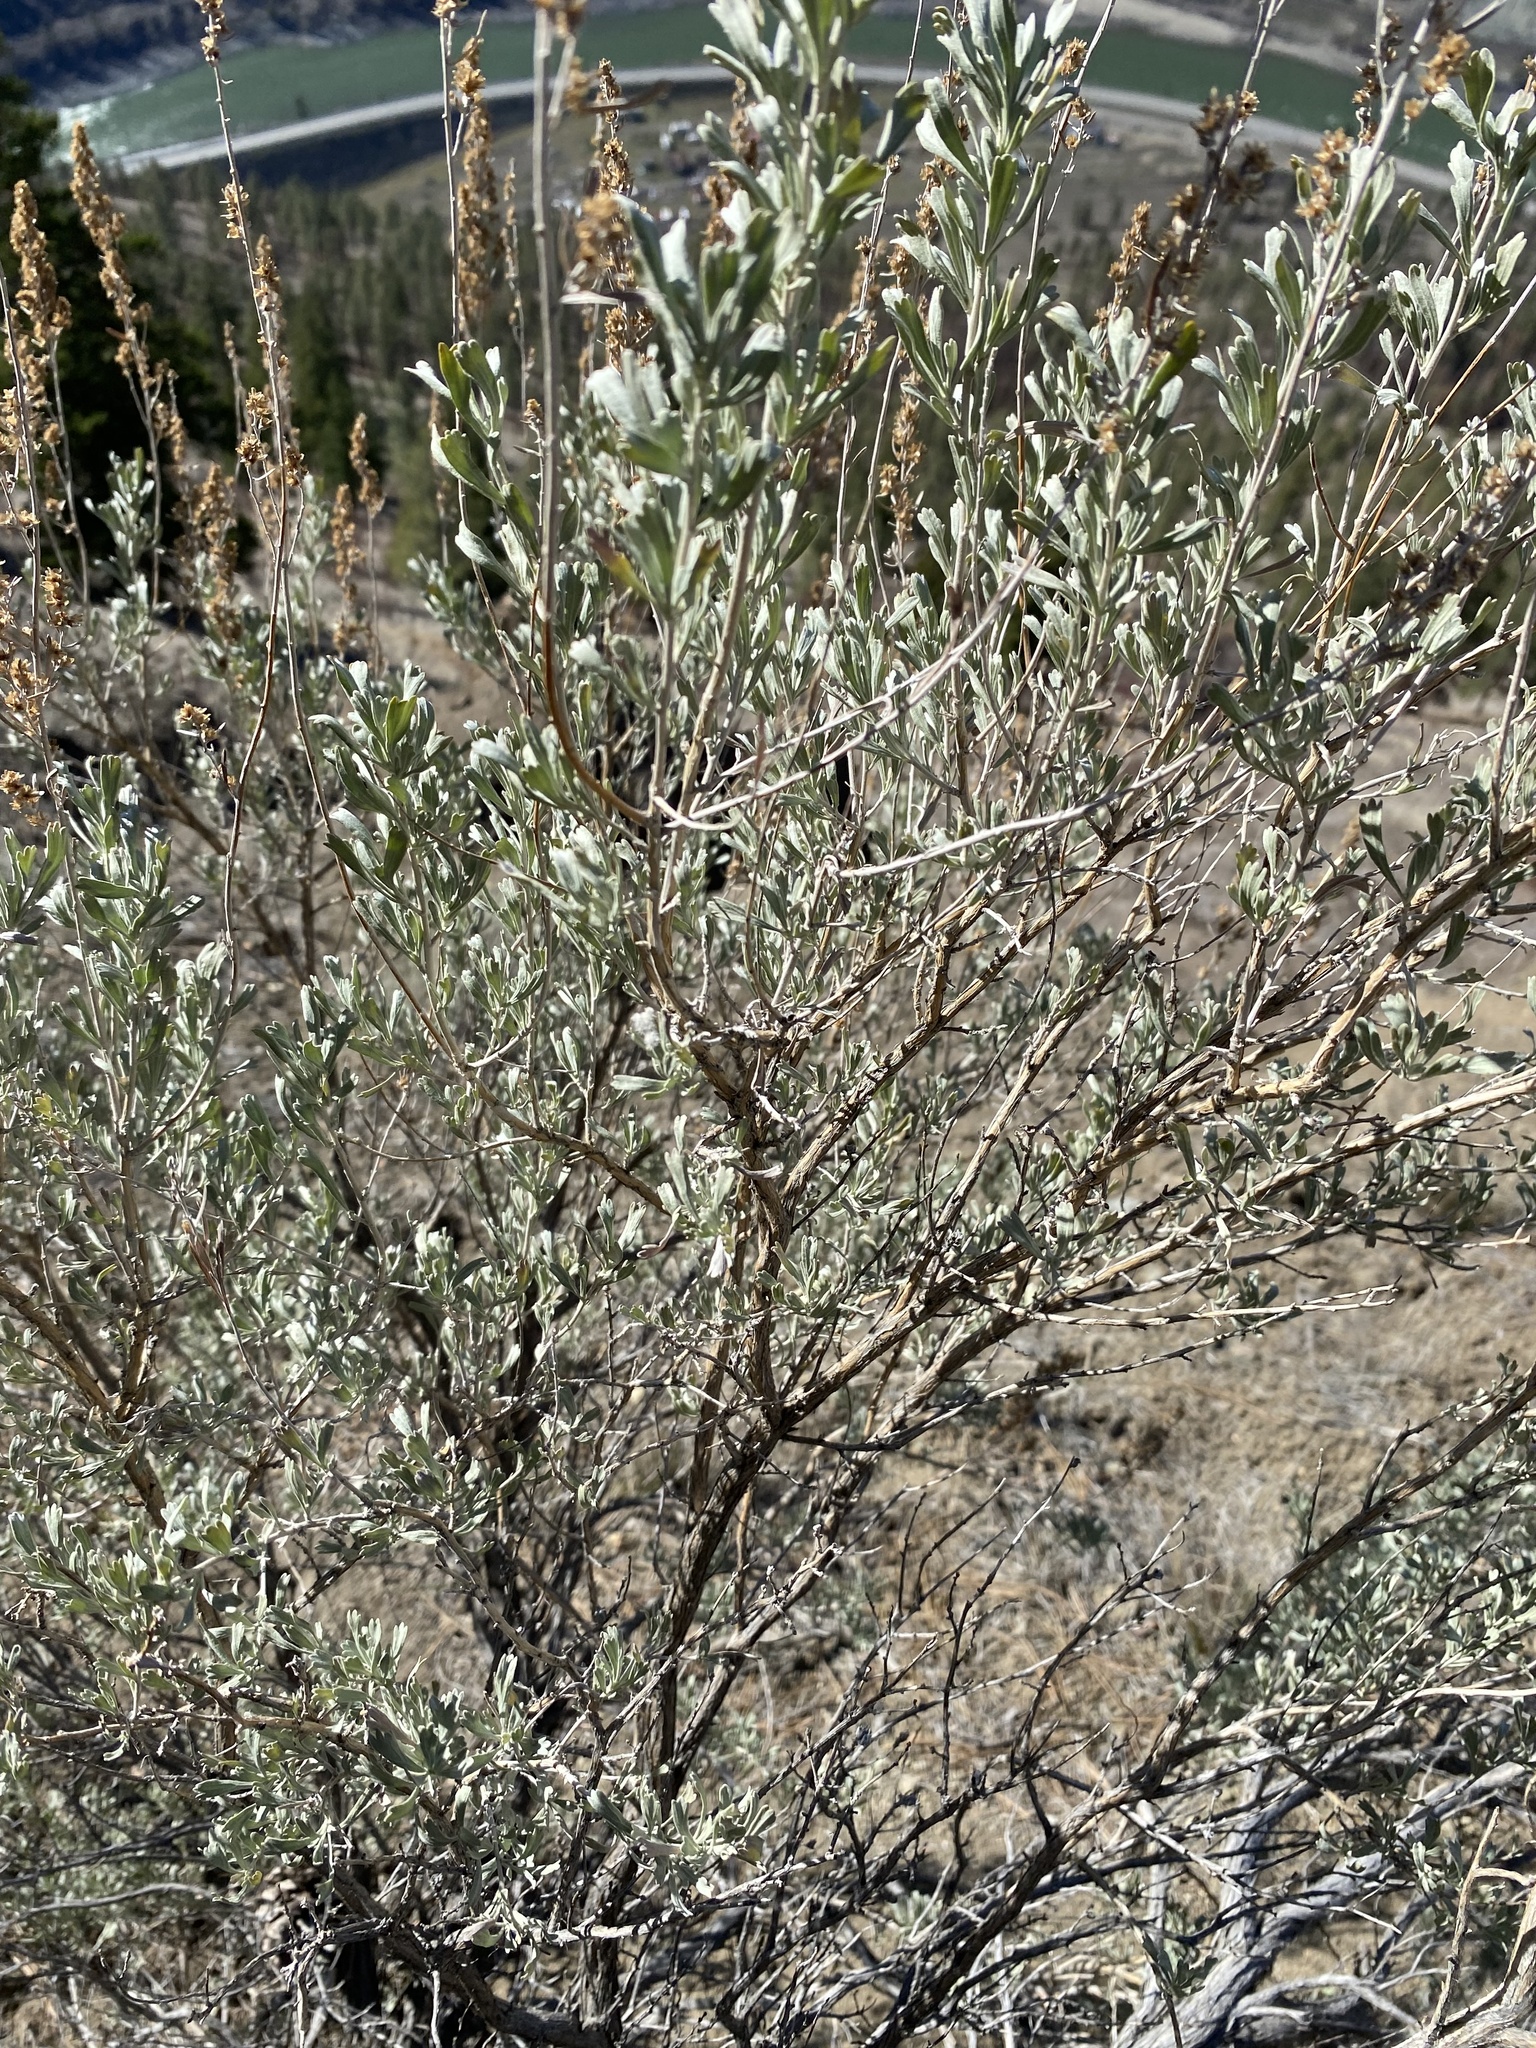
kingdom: Plantae
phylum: Tracheophyta
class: Magnoliopsida
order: Asterales
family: Asteraceae
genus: Artemisia
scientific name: Artemisia tridentata
